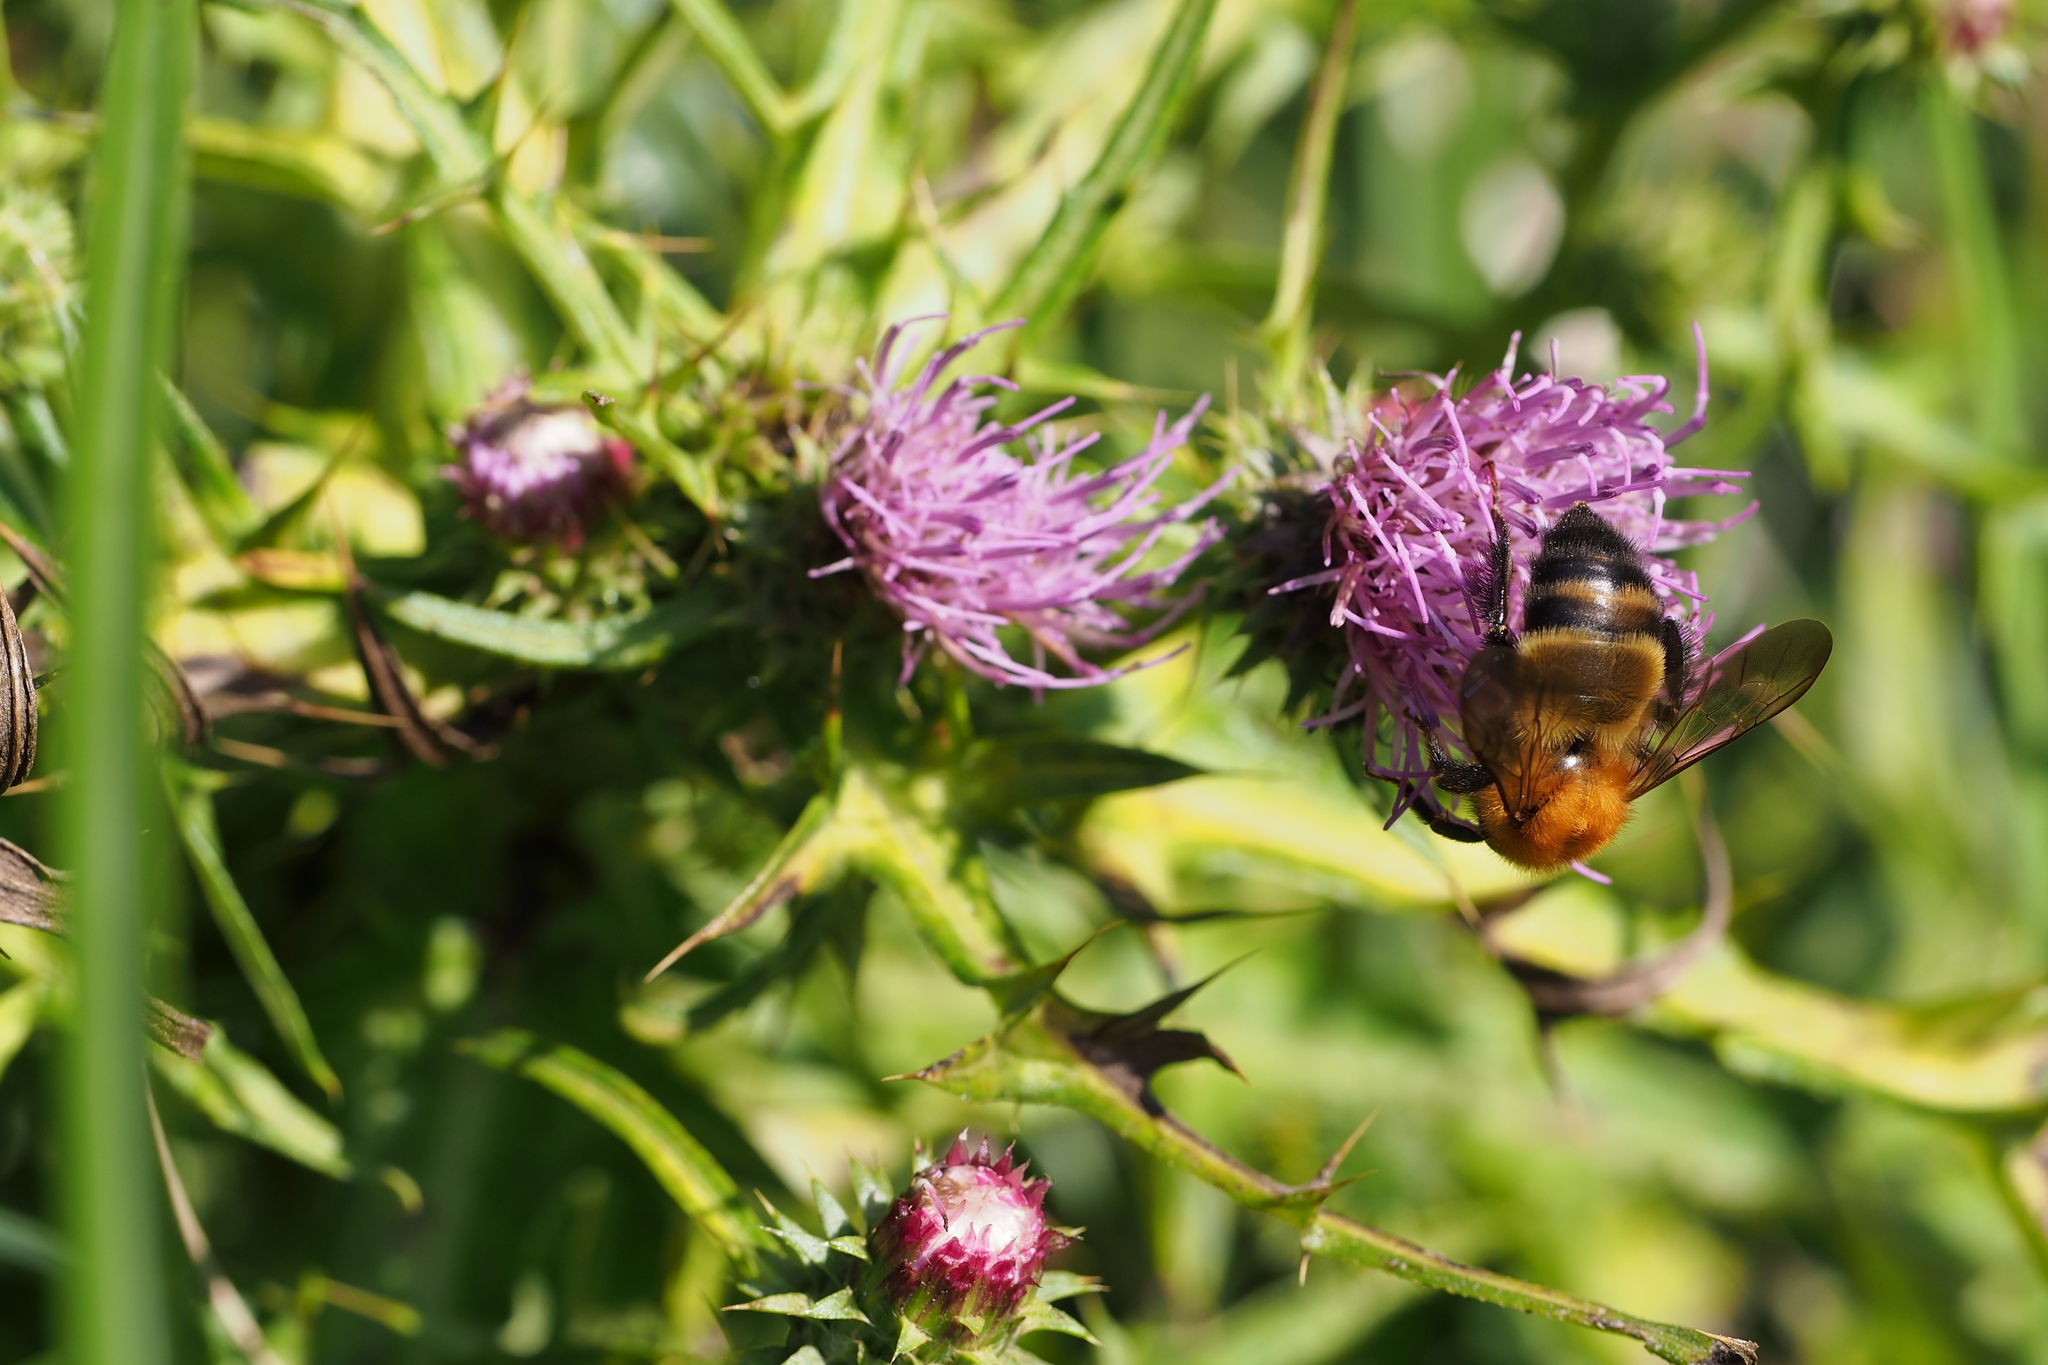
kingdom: Animalia
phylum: Arthropoda
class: Insecta
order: Hymenoptera
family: Apidae
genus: Bombus
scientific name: Bombus diversus
